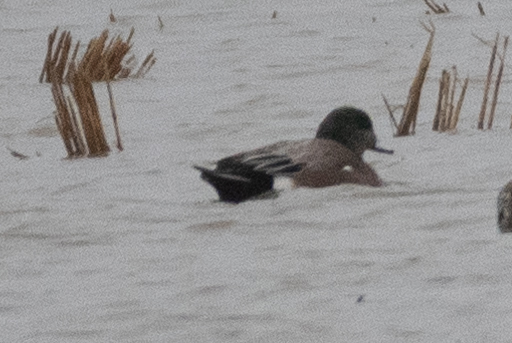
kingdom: Animalia
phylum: Chordata
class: Aves
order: Anseriformes
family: Anatidae
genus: Mareca
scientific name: Mareca americana
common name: American wigeon
